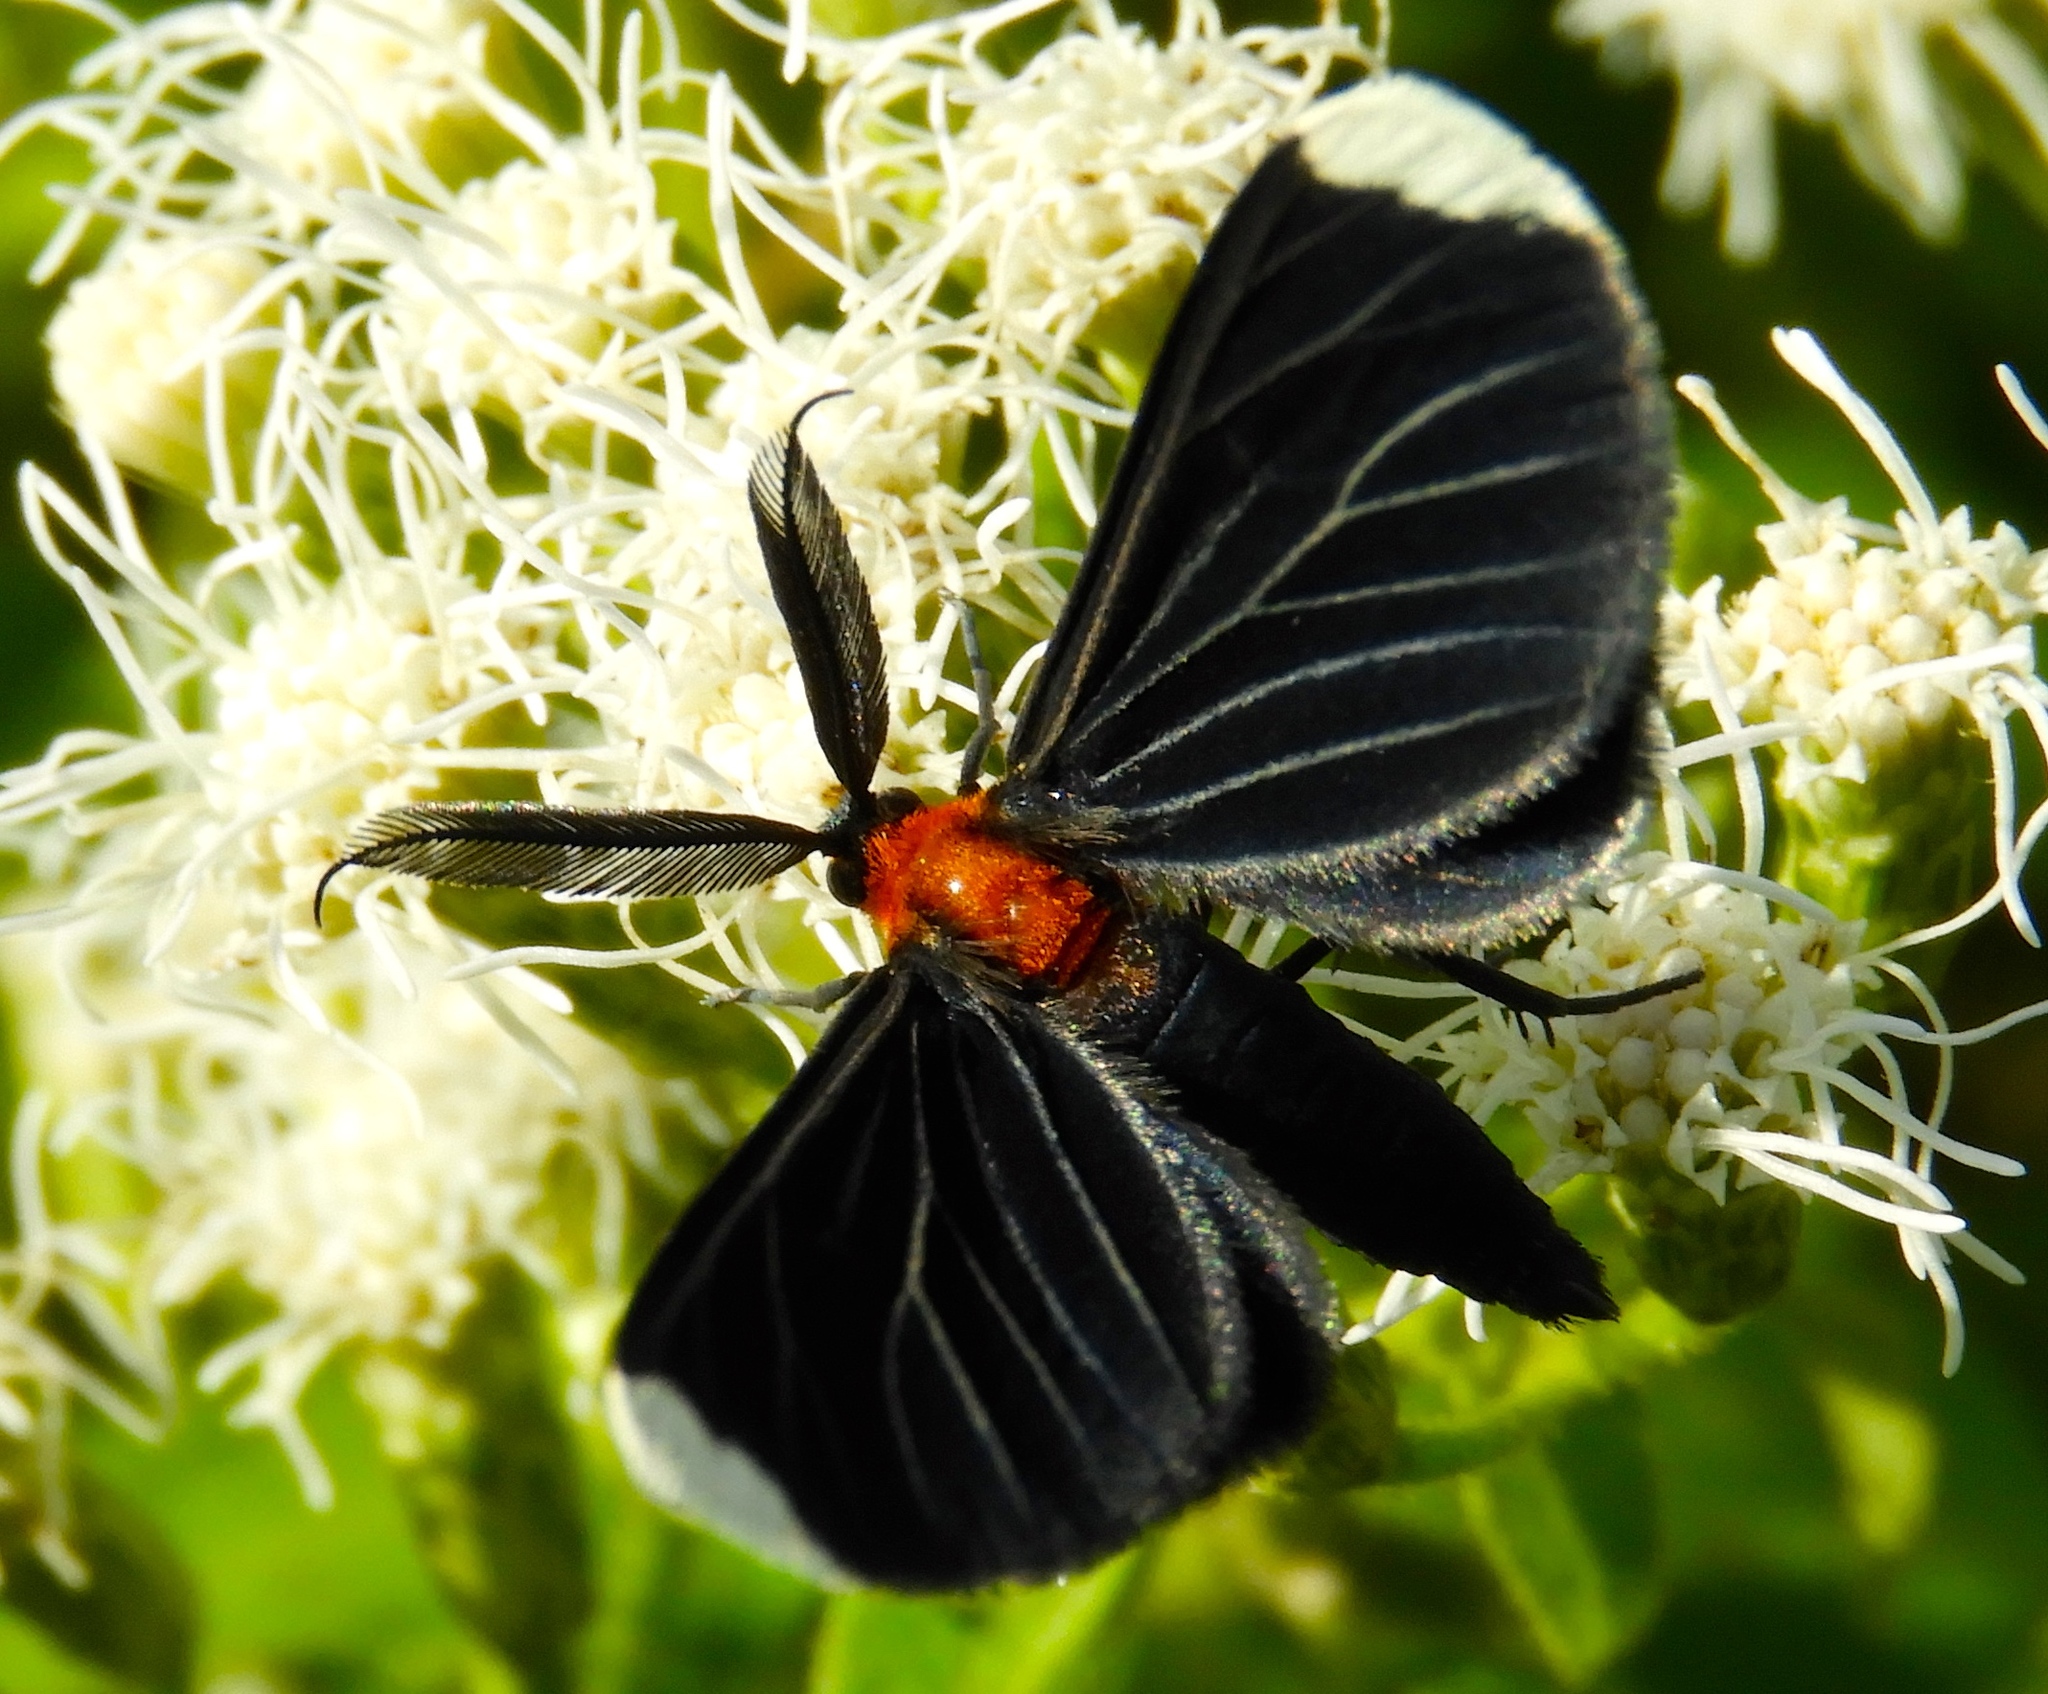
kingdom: Animalia
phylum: Arthropoda
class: Insecta
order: Lepidoptera
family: Geometridae
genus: Melanchroia
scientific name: Melanchroia chephise
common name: White-tipped black
